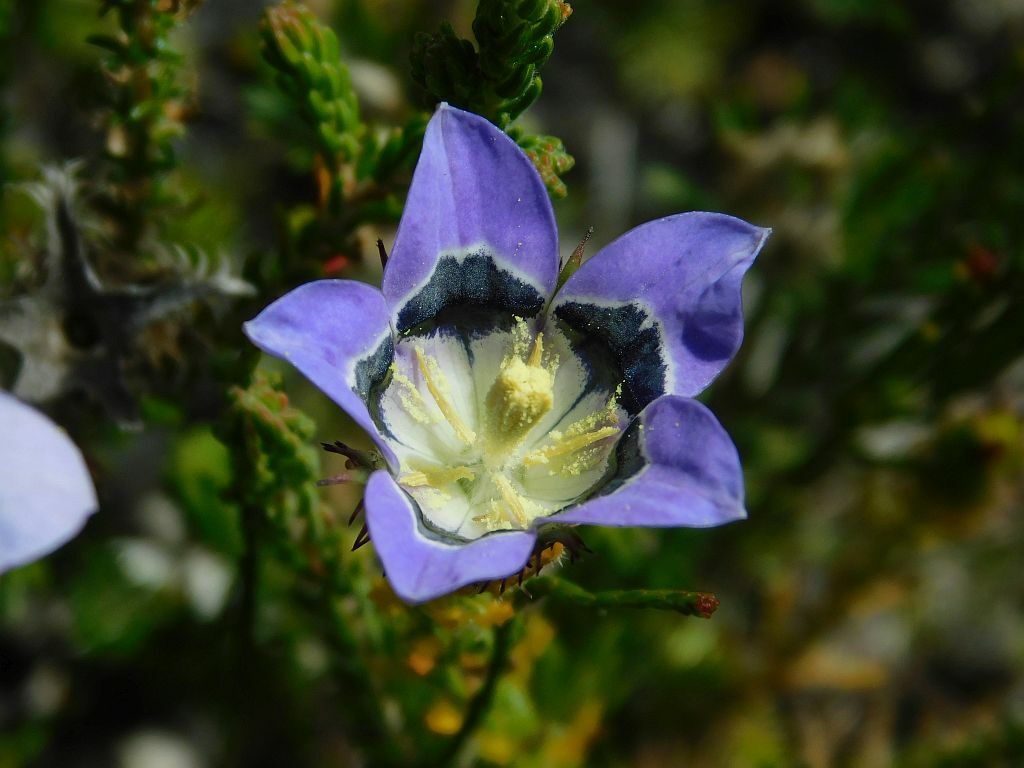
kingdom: Plantae
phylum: Tracheophyta
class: Magnoliopsida
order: Asterales
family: Campanulaceae
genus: Roella
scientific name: Roella incurva
